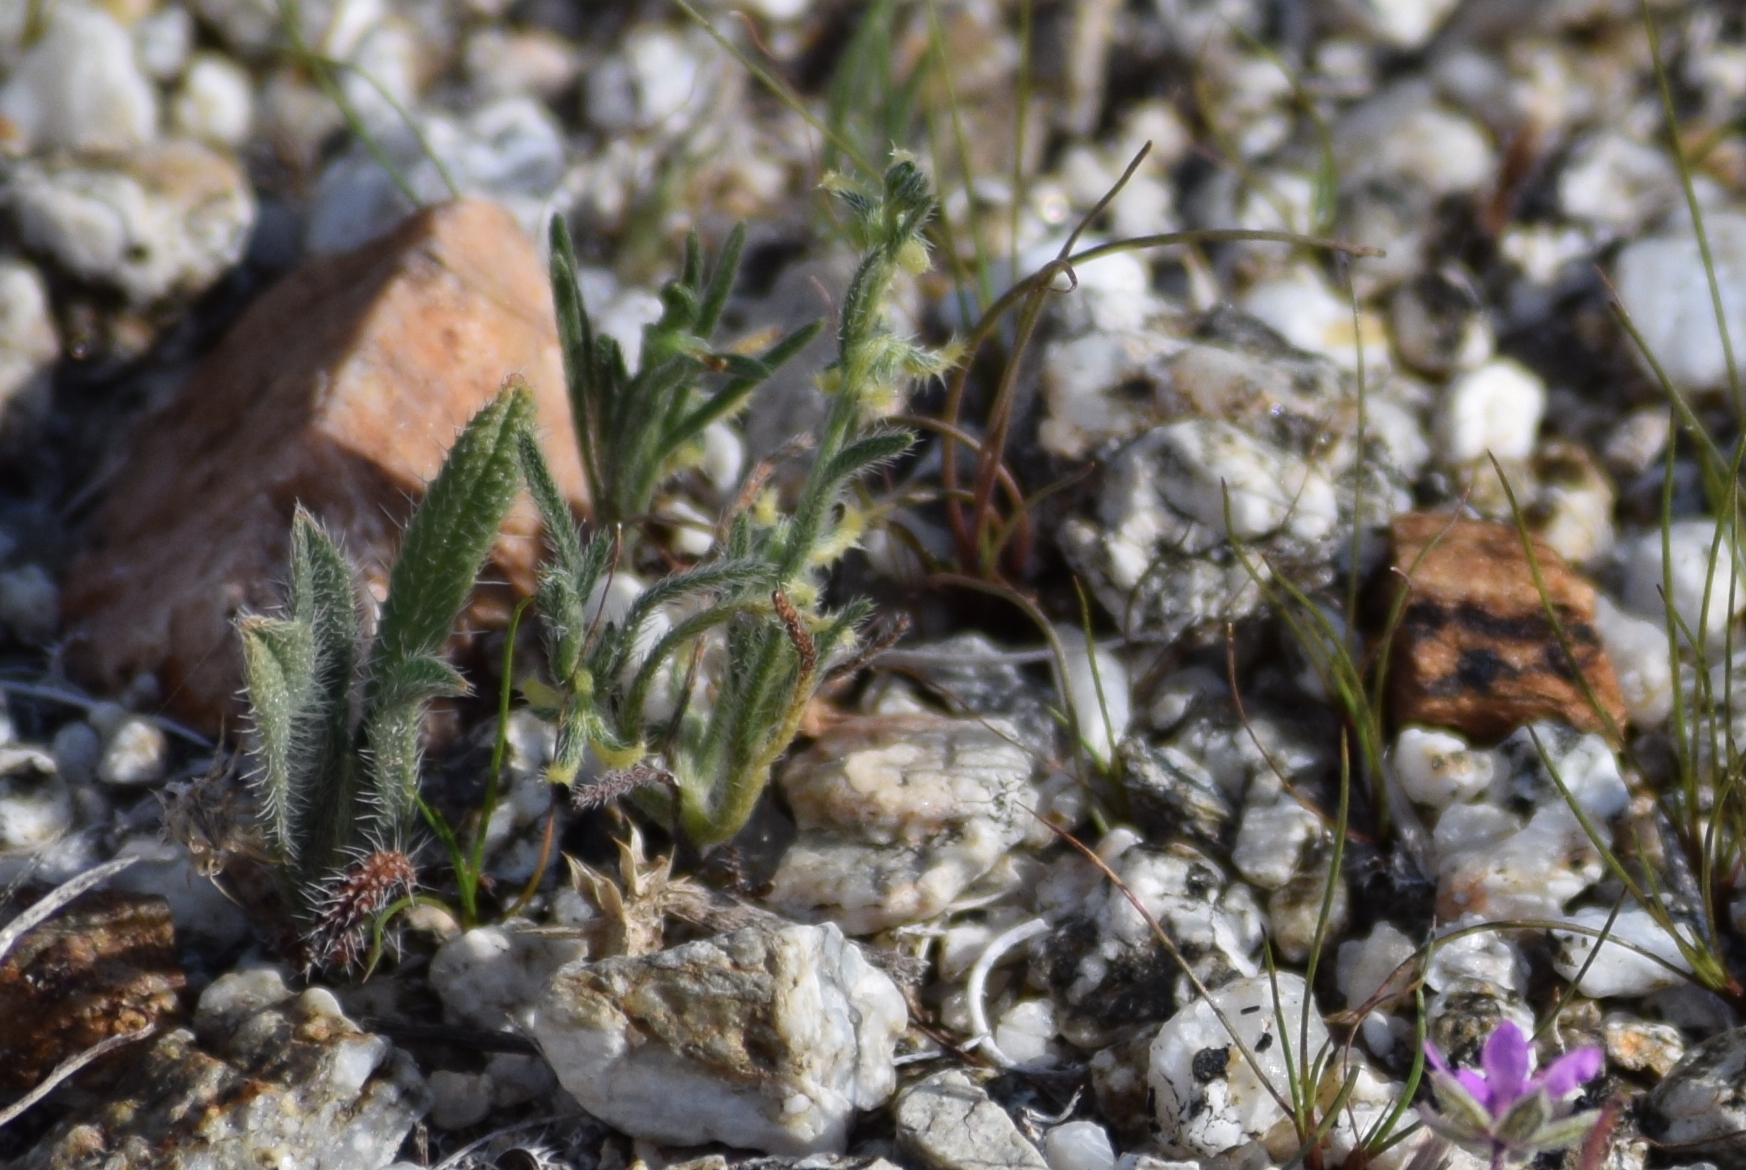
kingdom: Plantae
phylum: Tracheophyta
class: Magnoliopsida
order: Boraginales
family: Boraginaceae
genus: Pectocarya
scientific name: Pectocarya recurvata
